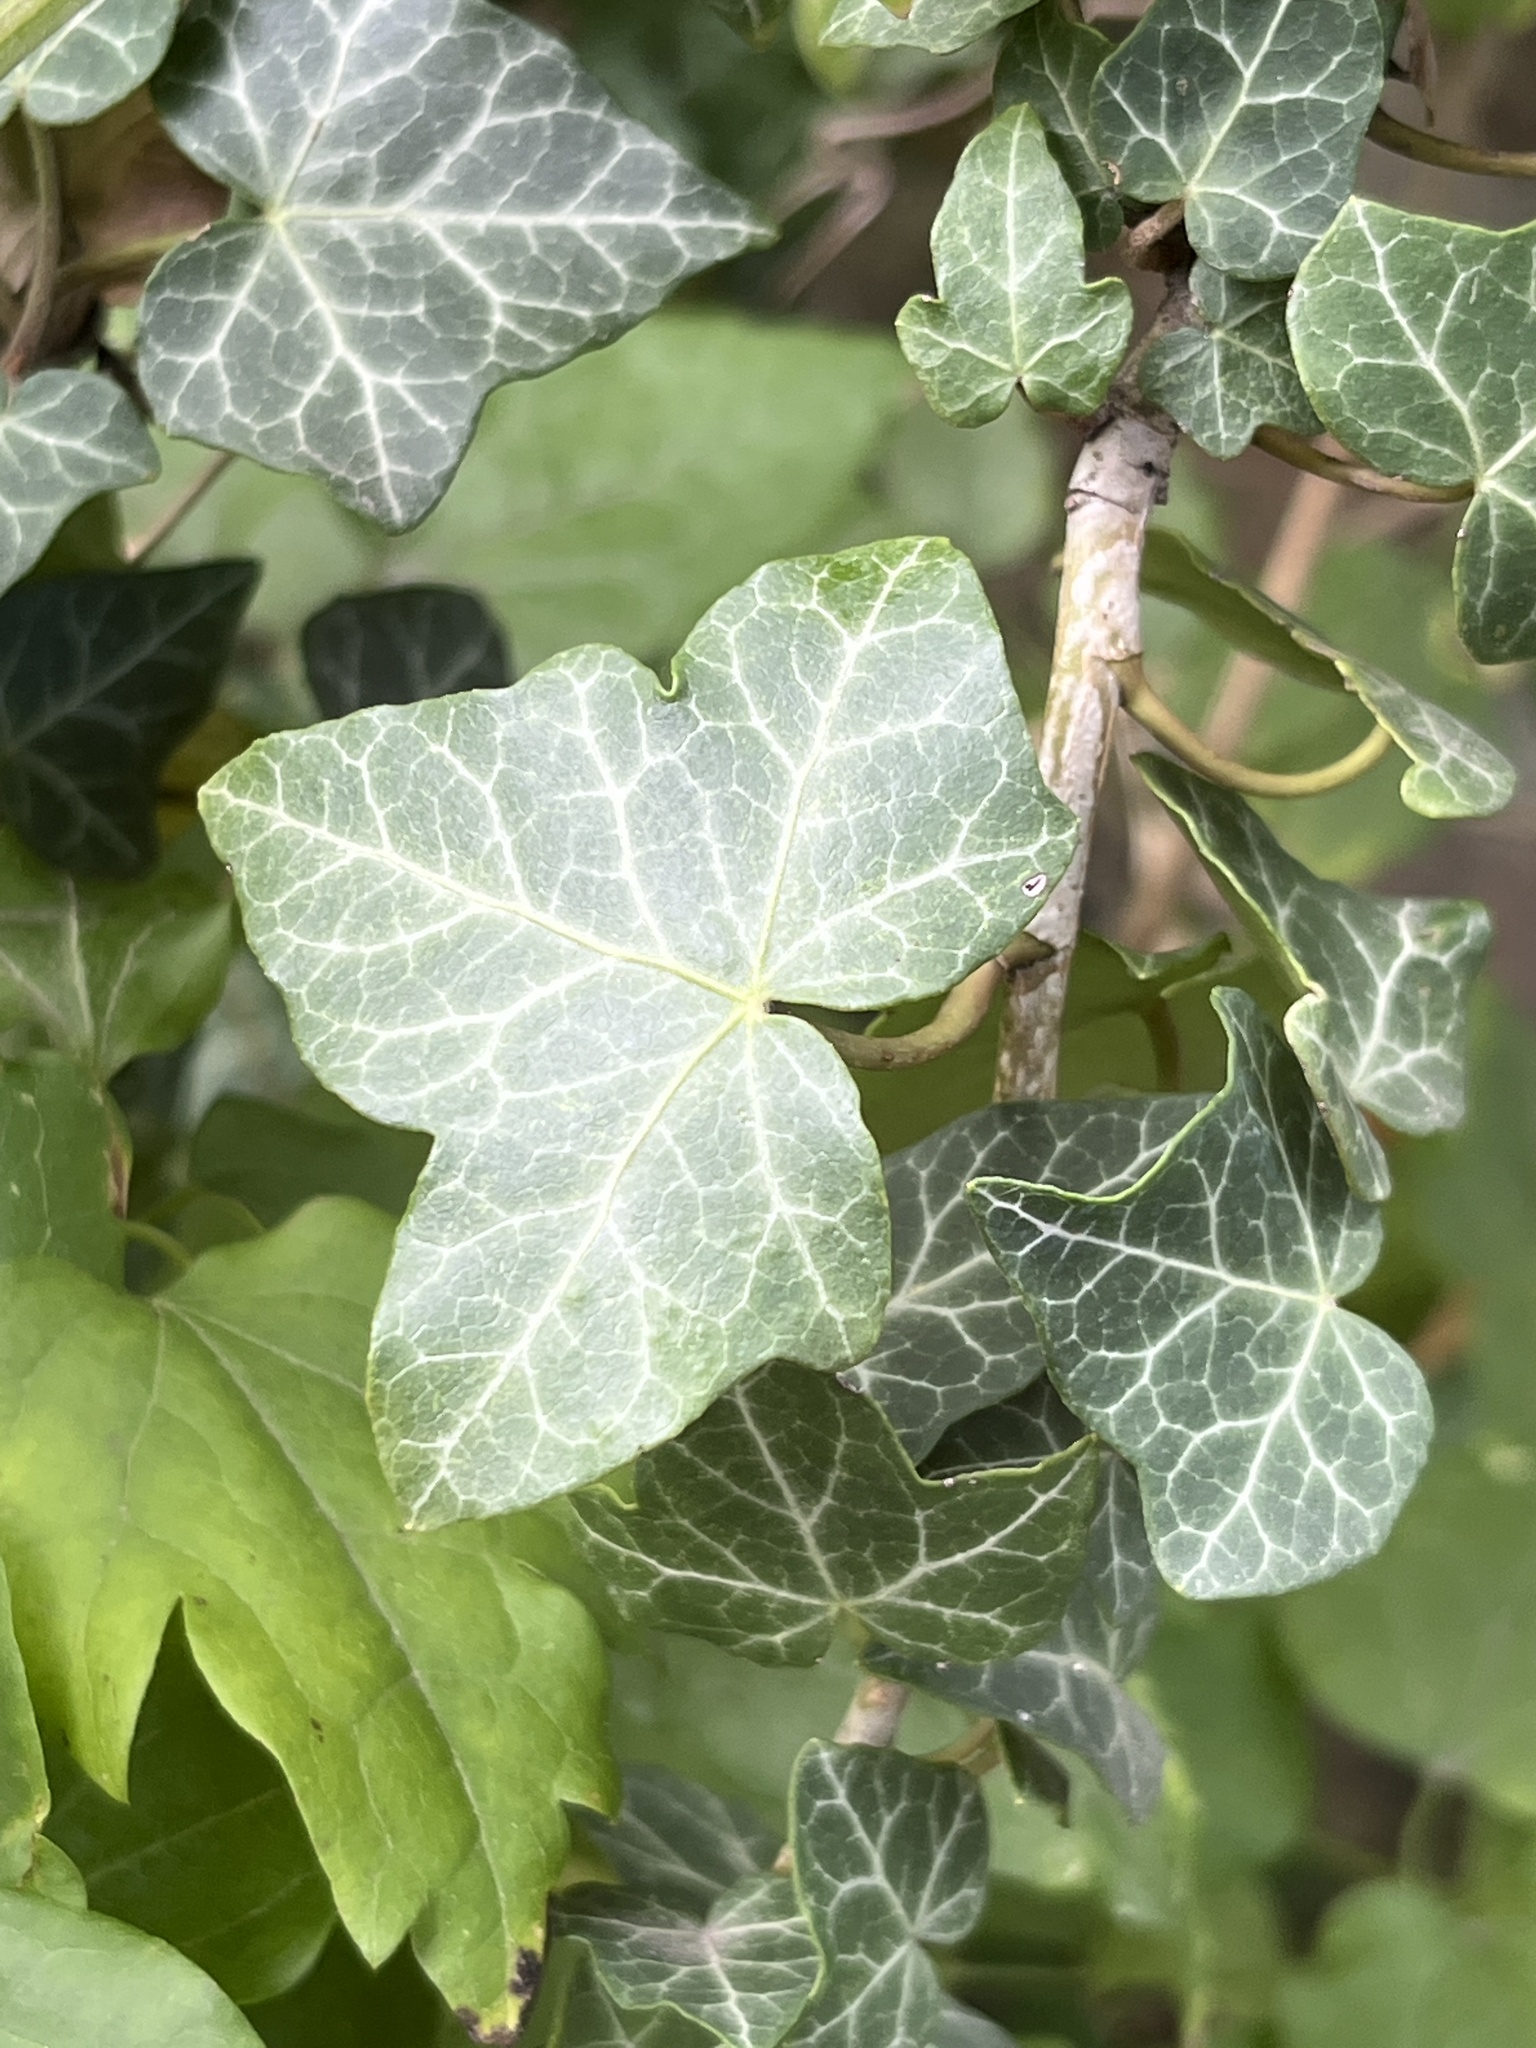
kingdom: Plantae
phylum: Tracheophyta
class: Magnoliopsida
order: Apiales
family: Araliaceae
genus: Hedera
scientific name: Hedera helix
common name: Ivy
